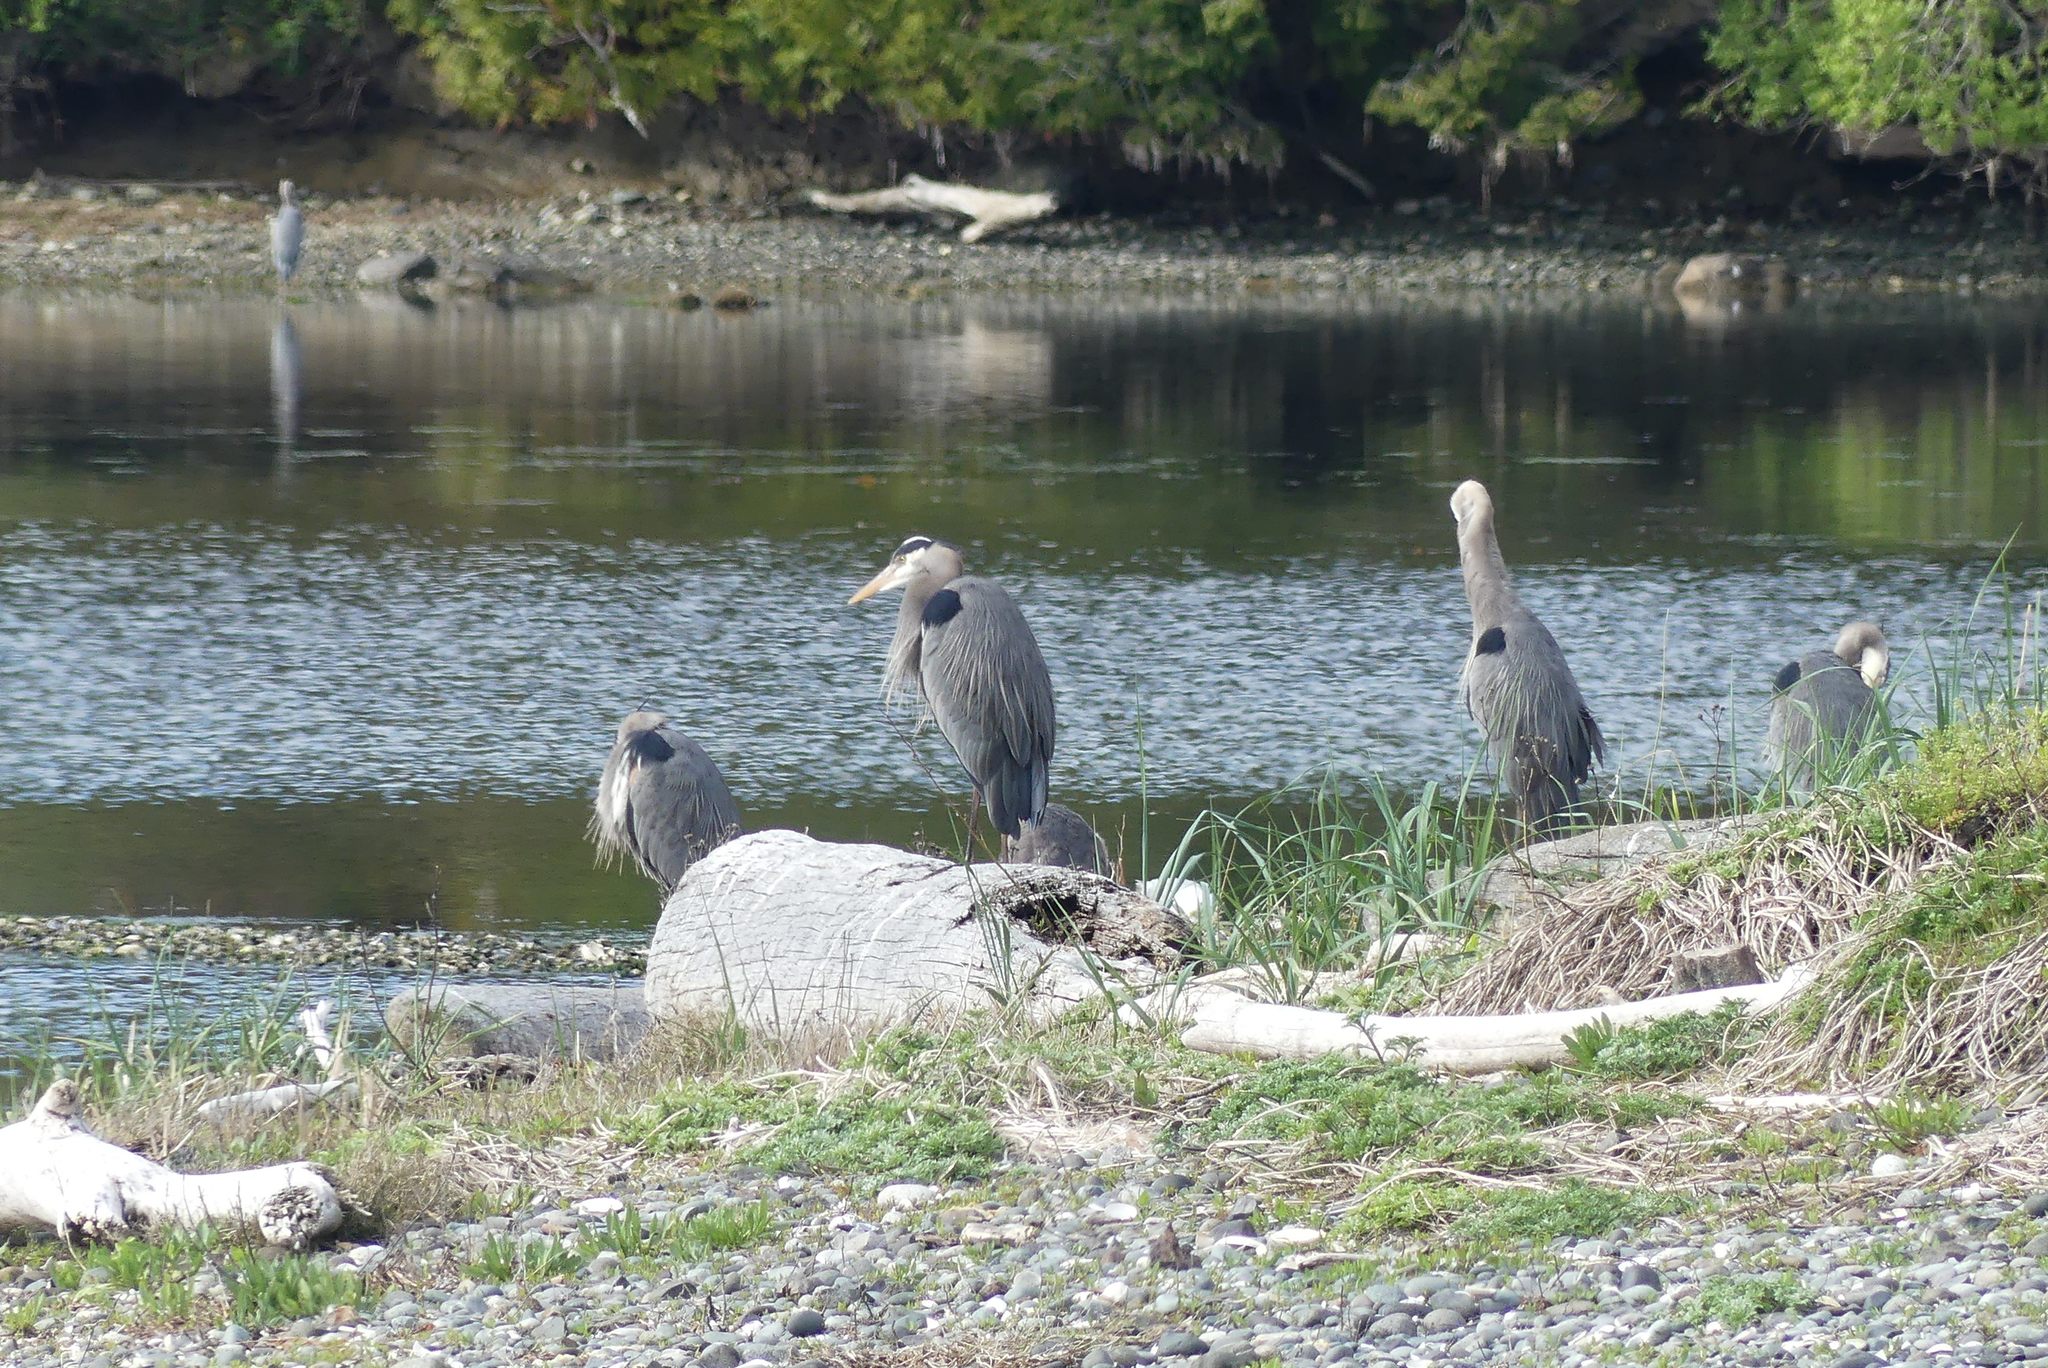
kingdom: Animalia
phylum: Chordata
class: Aves
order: Pelecaniformes
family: Ardeidae
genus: Ardea
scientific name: Ardea herodias
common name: Great blue heron
